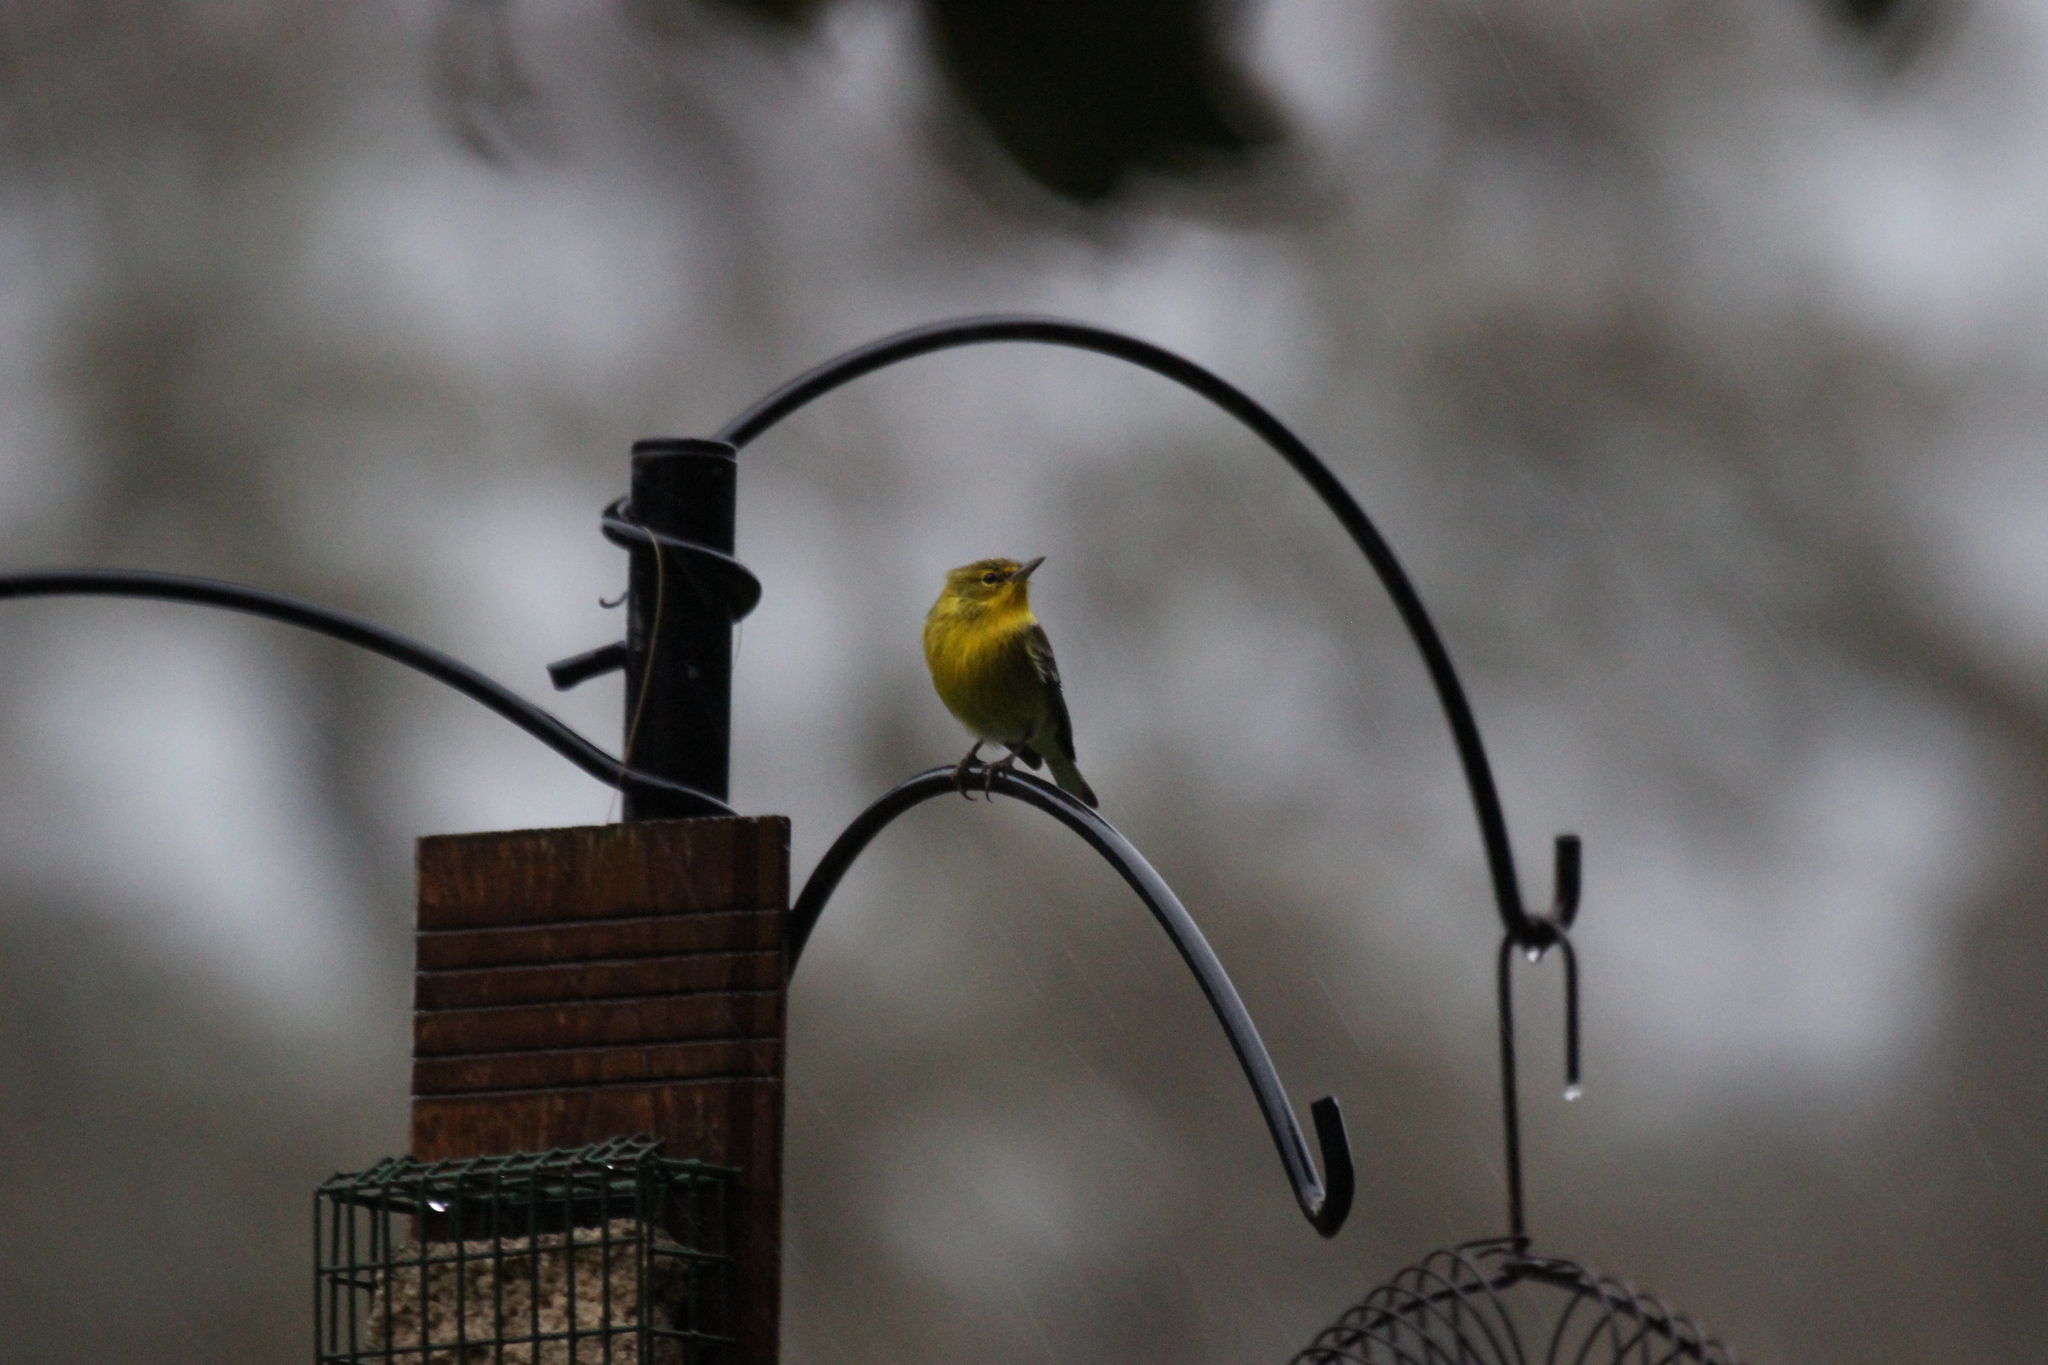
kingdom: Animalia
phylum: Chordata
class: Aves
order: Passeriformes
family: Parulidae
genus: Setophaga
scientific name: Setophaga pinus
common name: Pine warbler
